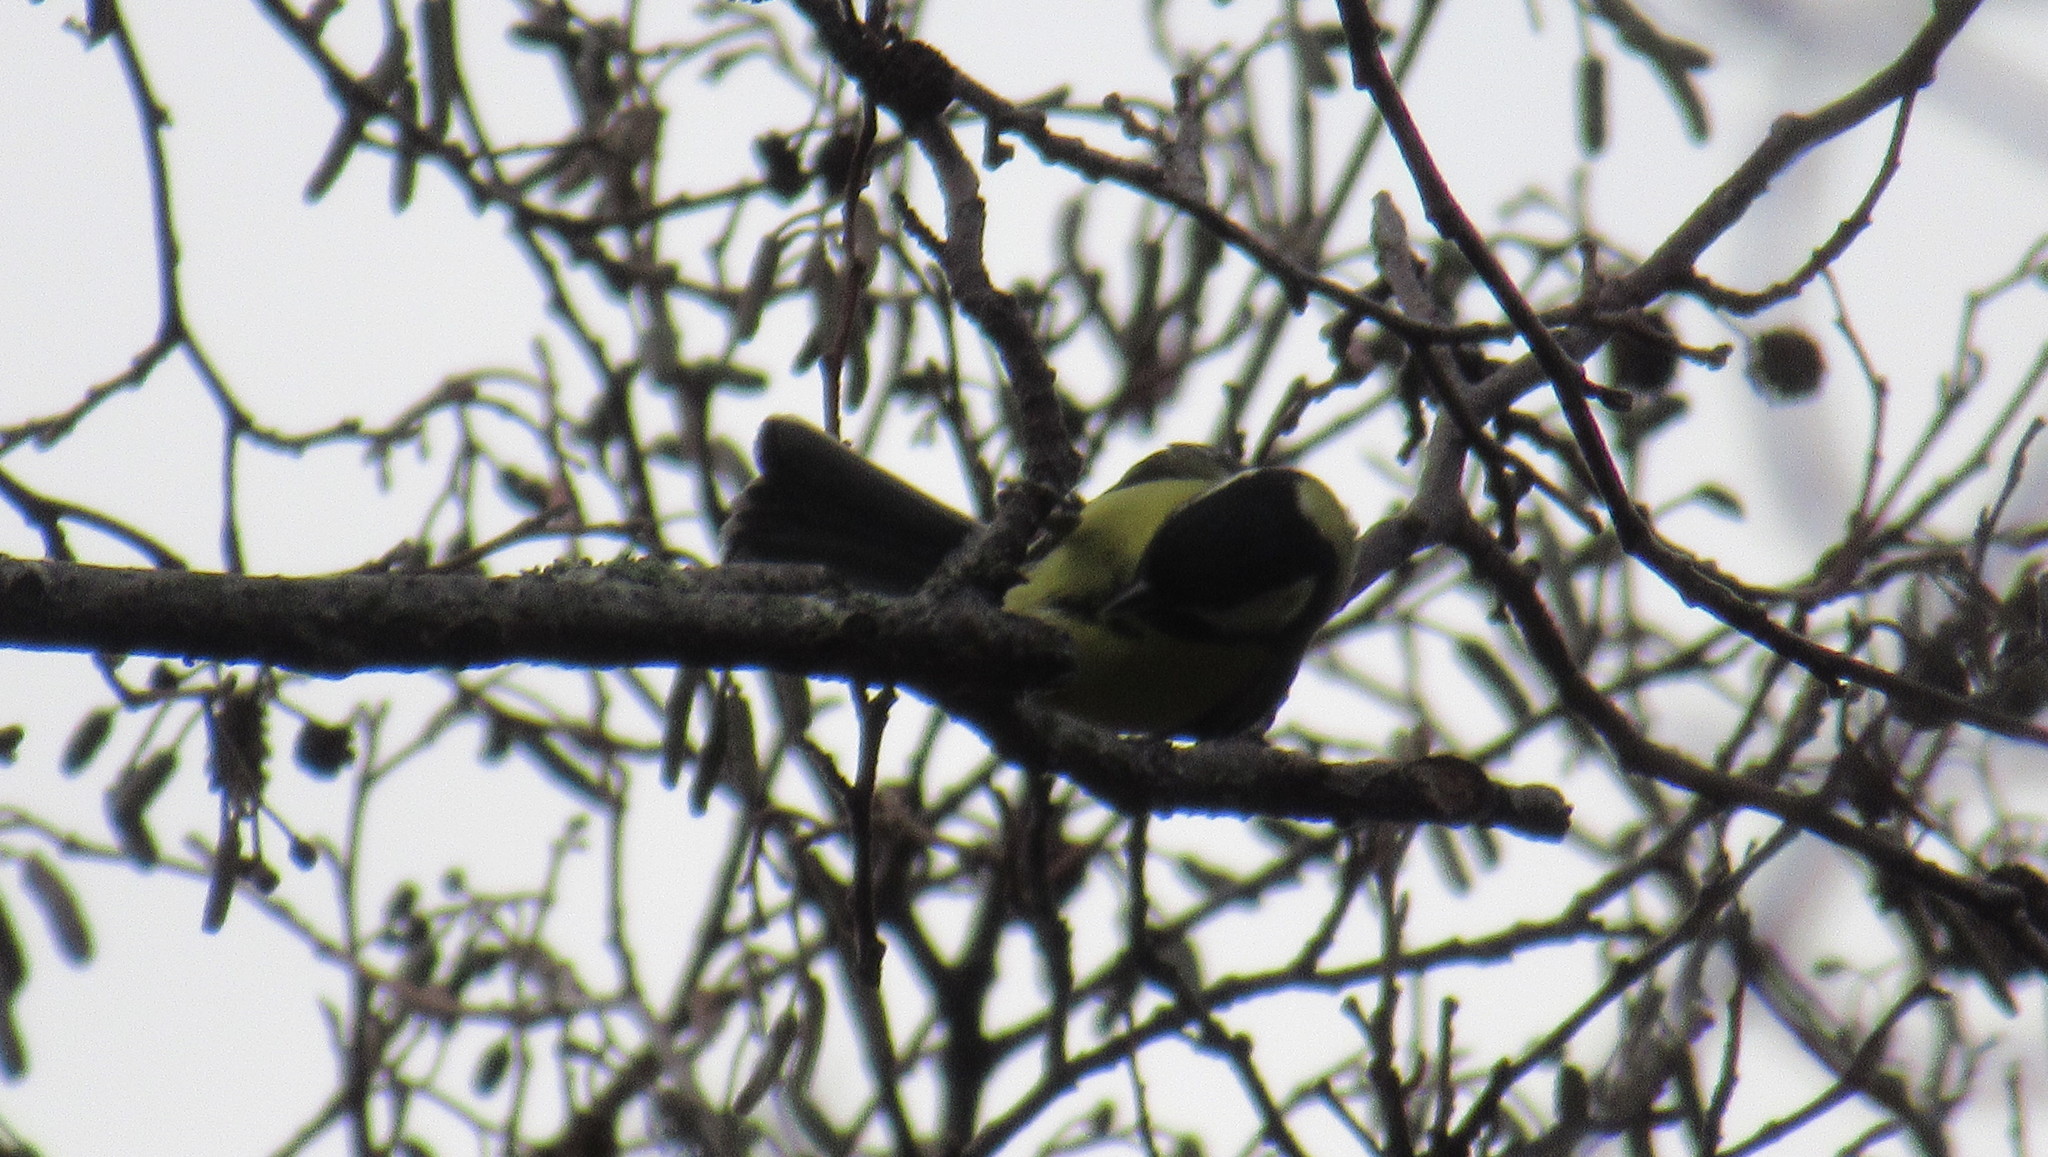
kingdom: Animalia
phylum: Chordata
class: Aves
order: Passeriformes
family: Paridae
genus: Parus
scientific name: Parus major
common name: Great tit
